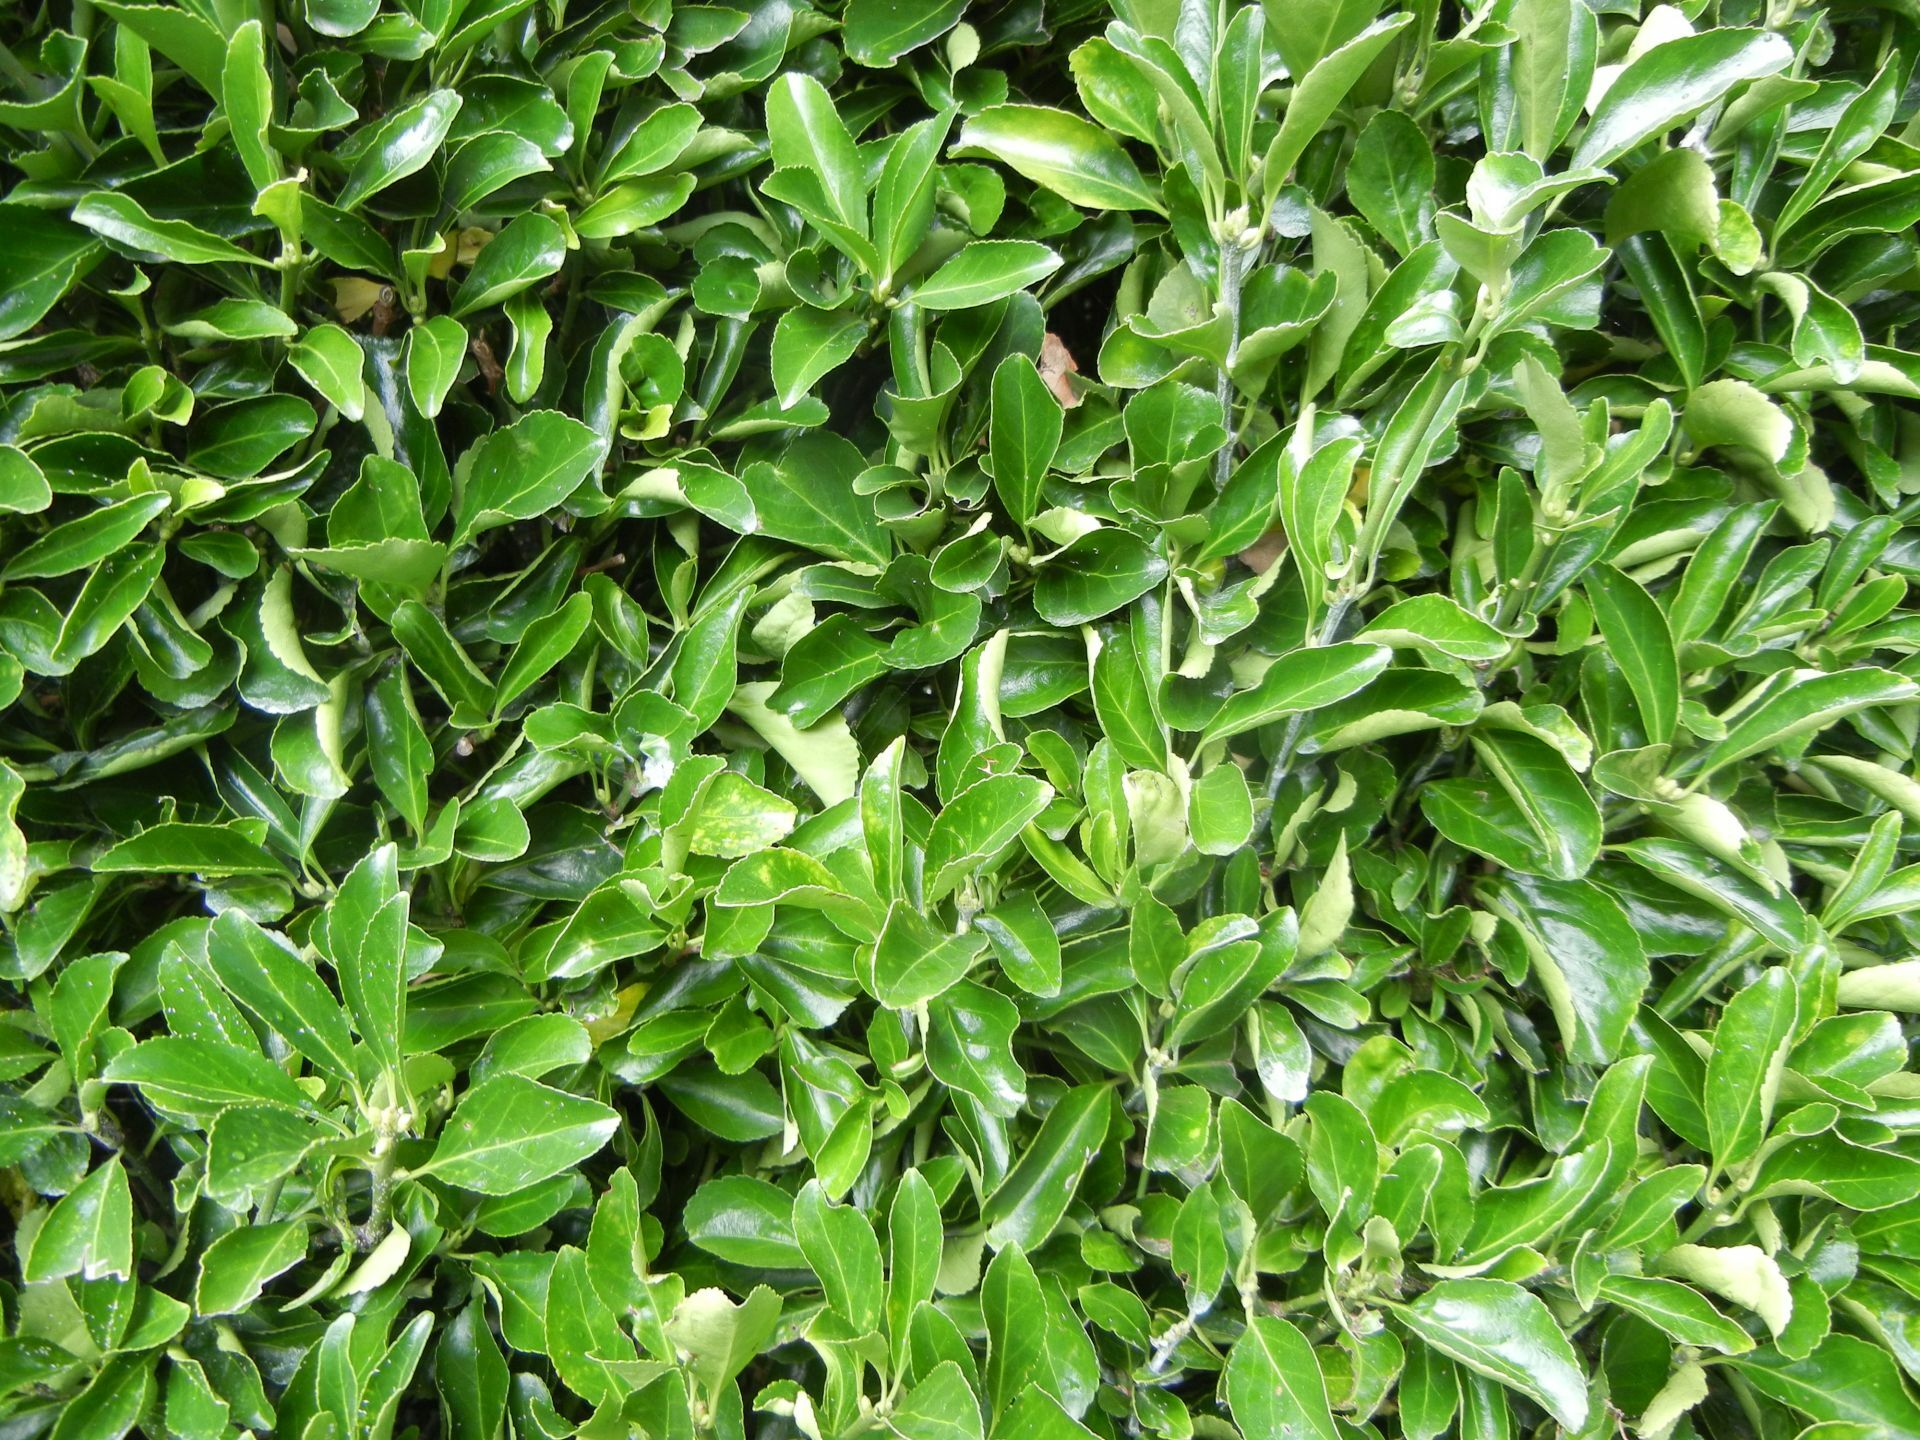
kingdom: Plantae
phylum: Tracheophyta
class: Magnoliopsida
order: Celastrales
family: Celastraceae
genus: Euonymus
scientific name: Euonymus japonicus
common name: Japanese spindletree
